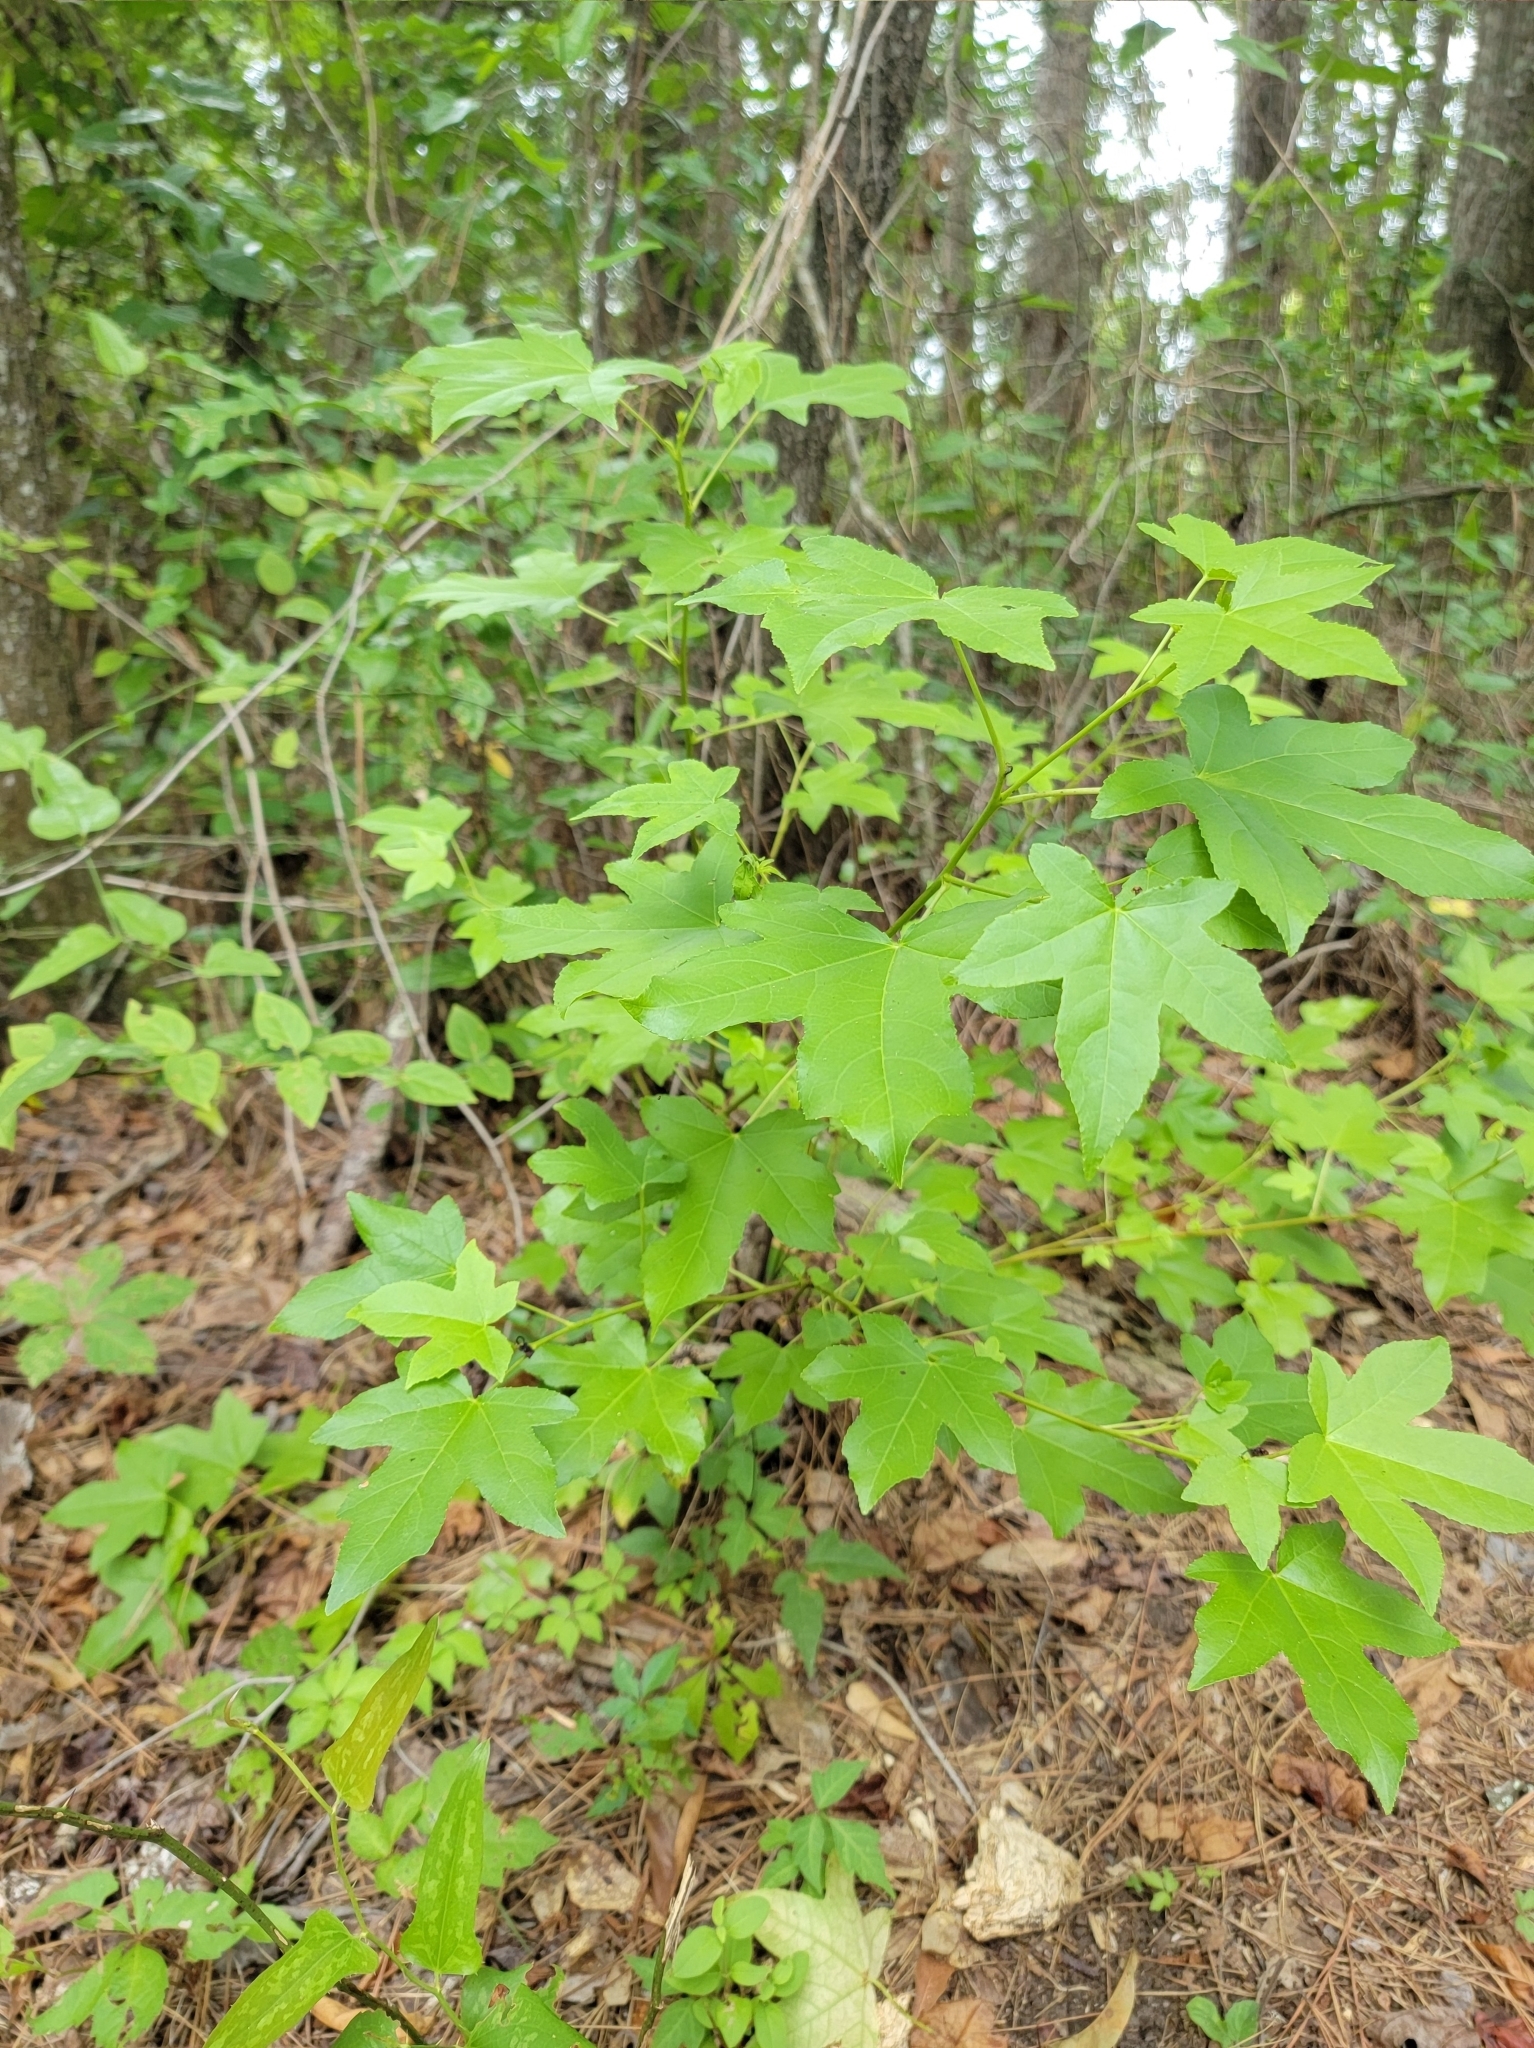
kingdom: Plantae
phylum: Tracheophyta
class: Magnoliopsida
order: Saxifragales
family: Altingiaceae
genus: Liquidambar
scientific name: Liquidambar styraciflua
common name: Sweet gum
